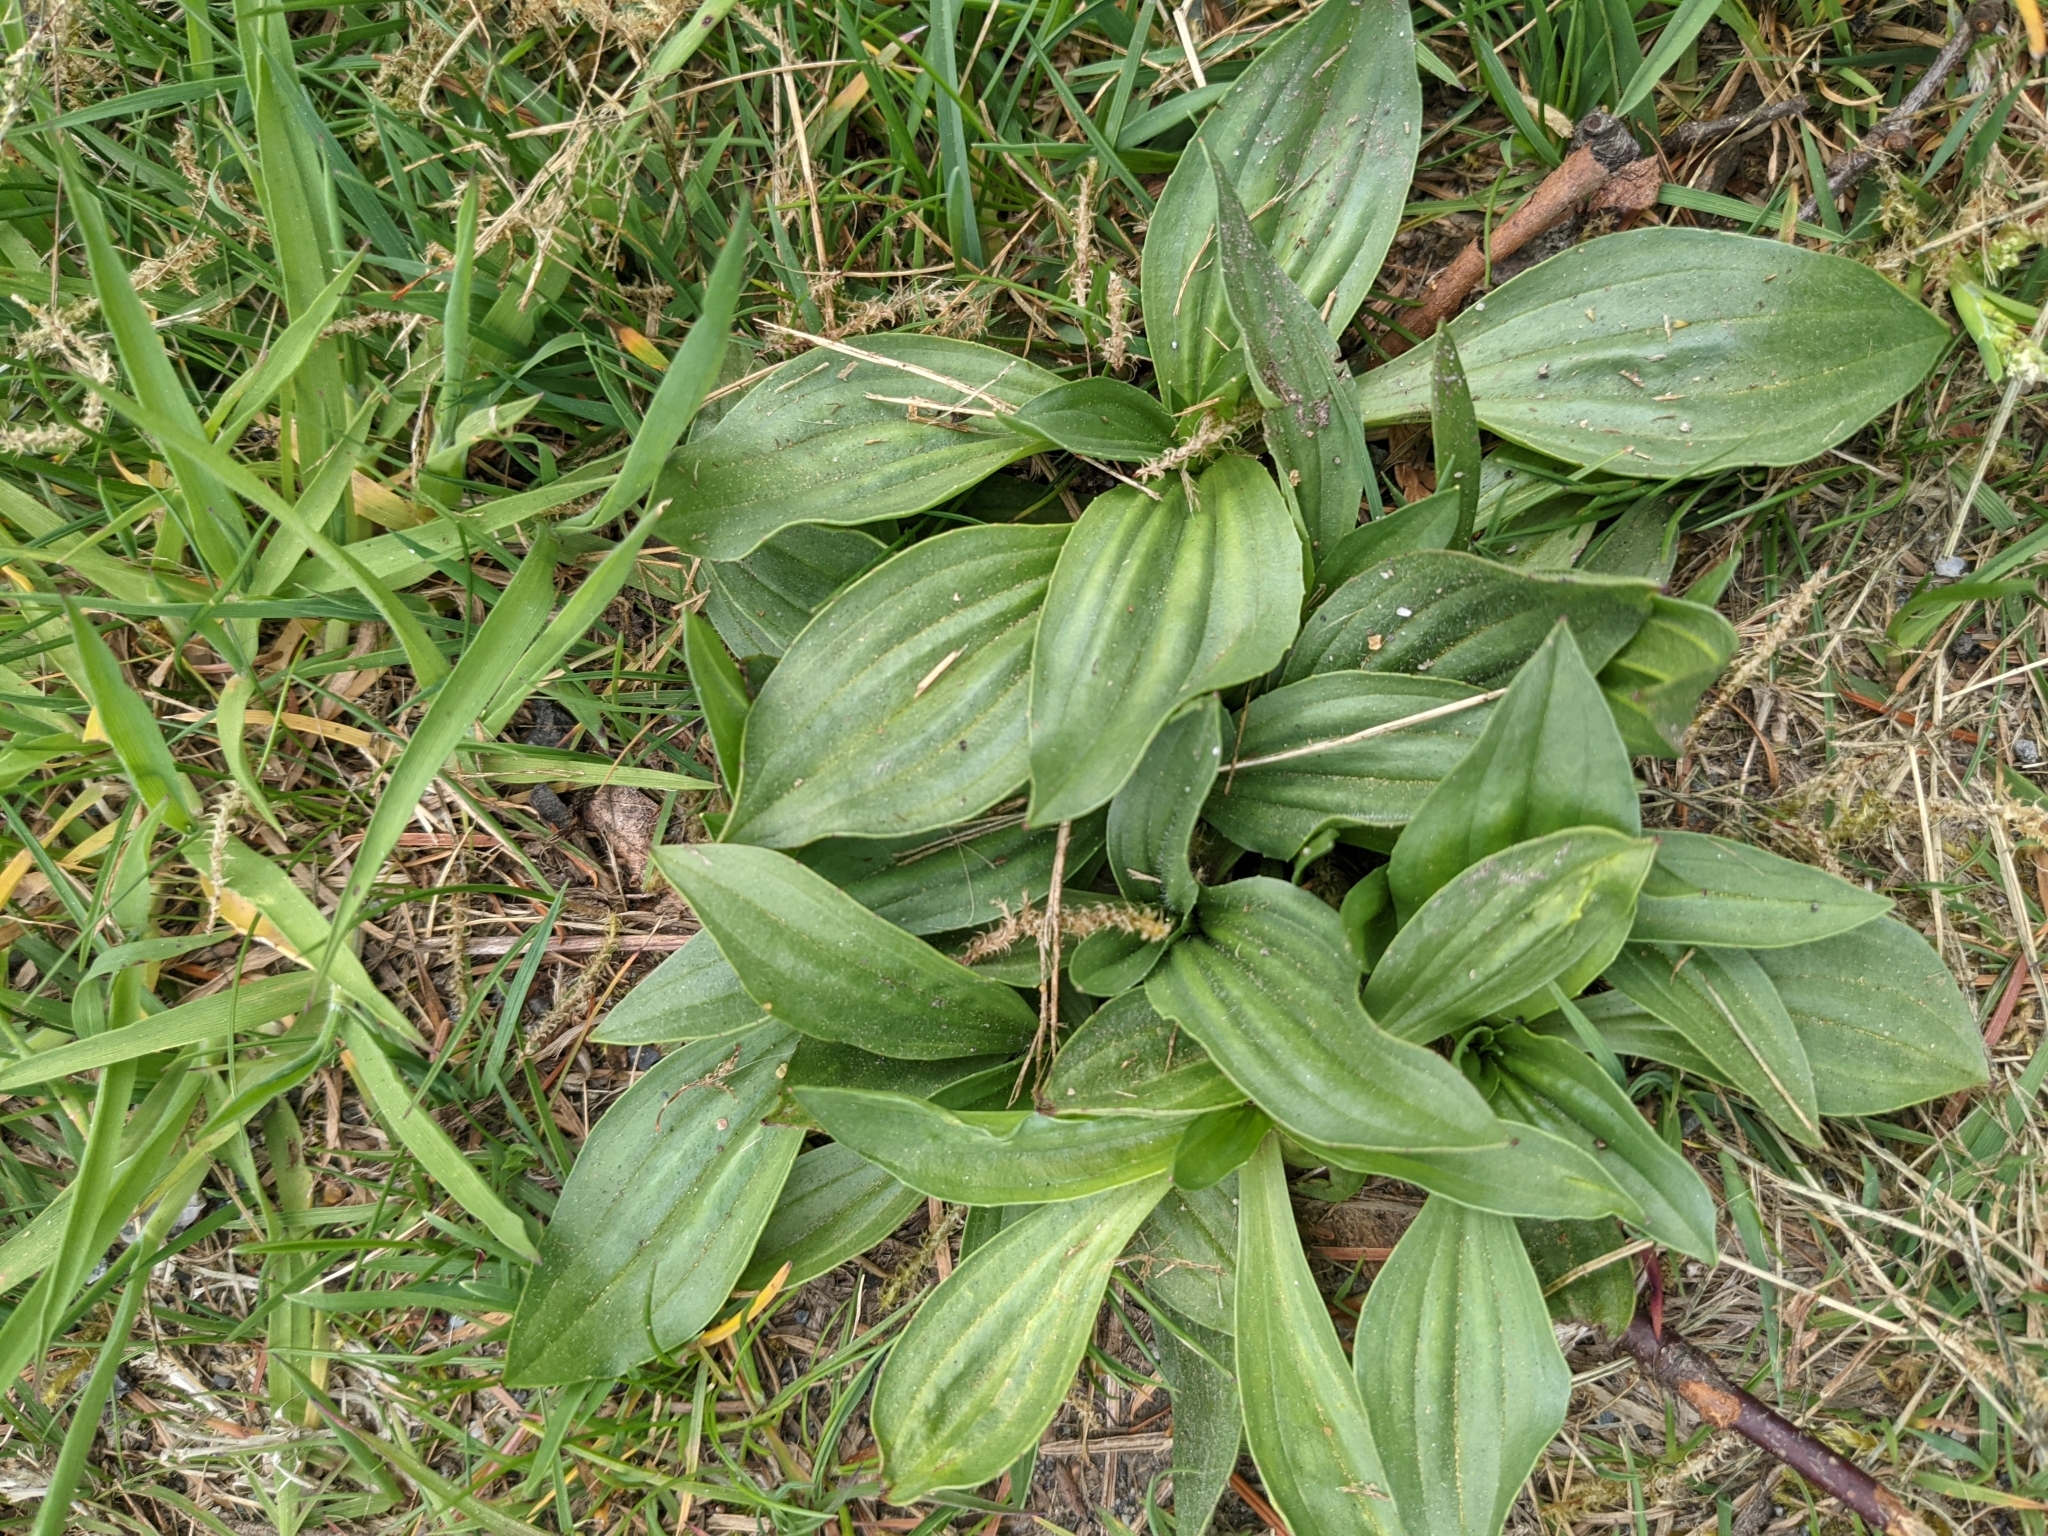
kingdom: Plantae
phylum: Tracheophyta
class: Magnoliopsida
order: Lamiales
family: Plantaginaceae
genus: Plantago
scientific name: Plantago lanceolata
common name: Ribwort plantain
